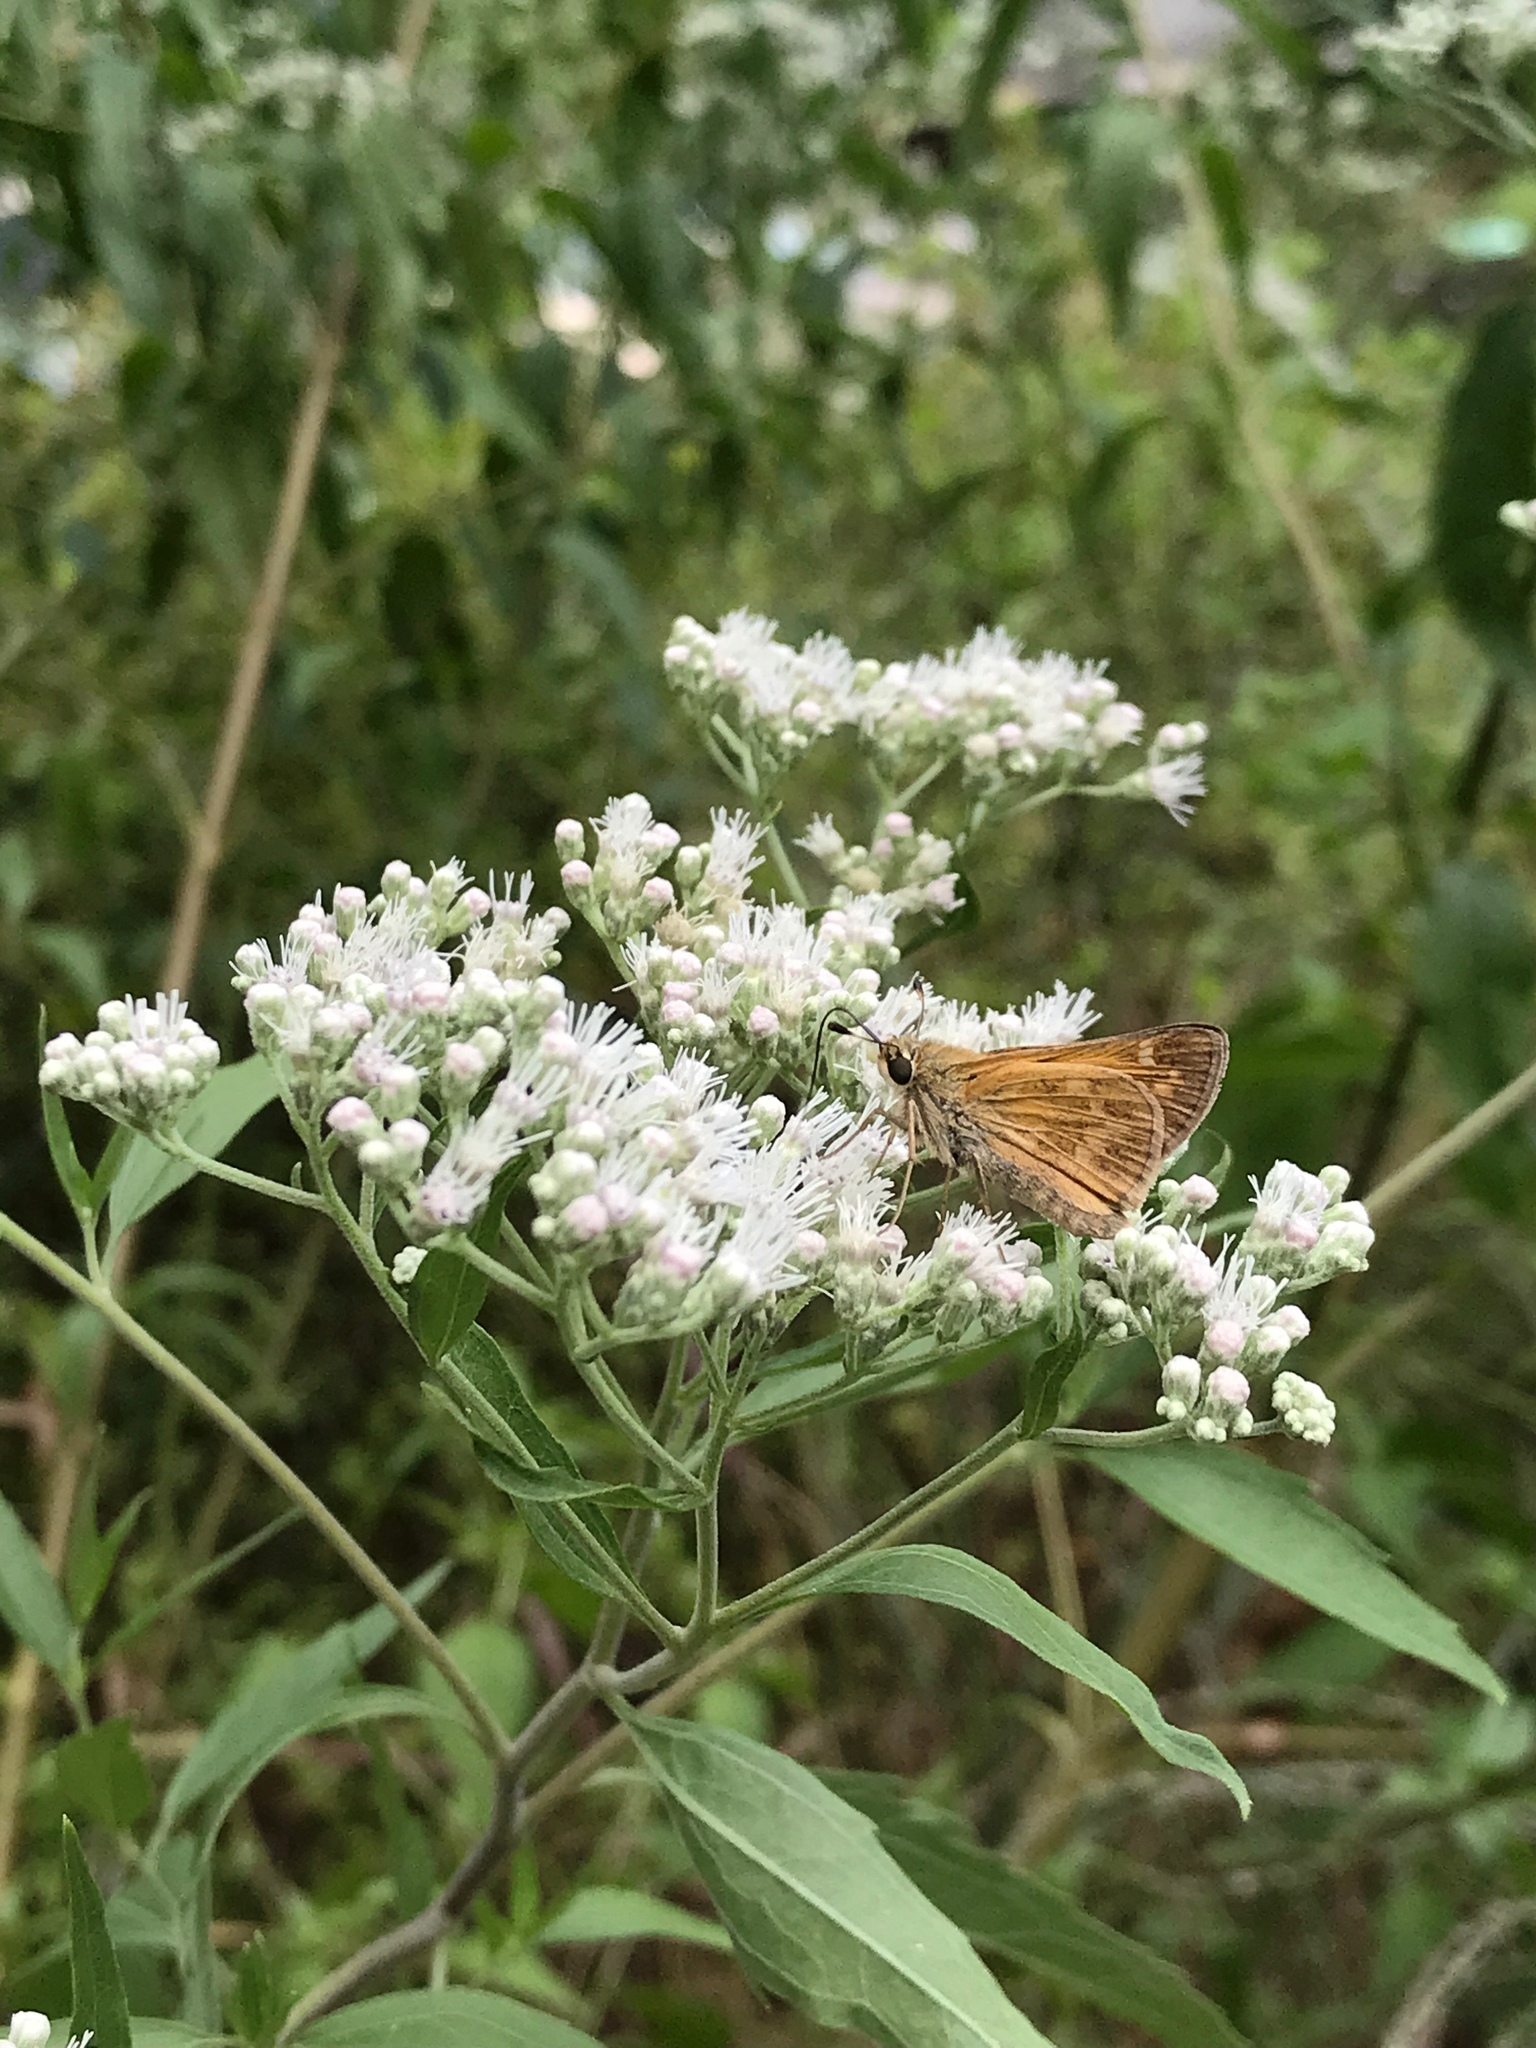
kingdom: Plantae
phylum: Tracheophyta
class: Magnoliopsida
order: Asterales
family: Asteraceae
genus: Eupatorium
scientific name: Eupatorium serotinum
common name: Late boneset
